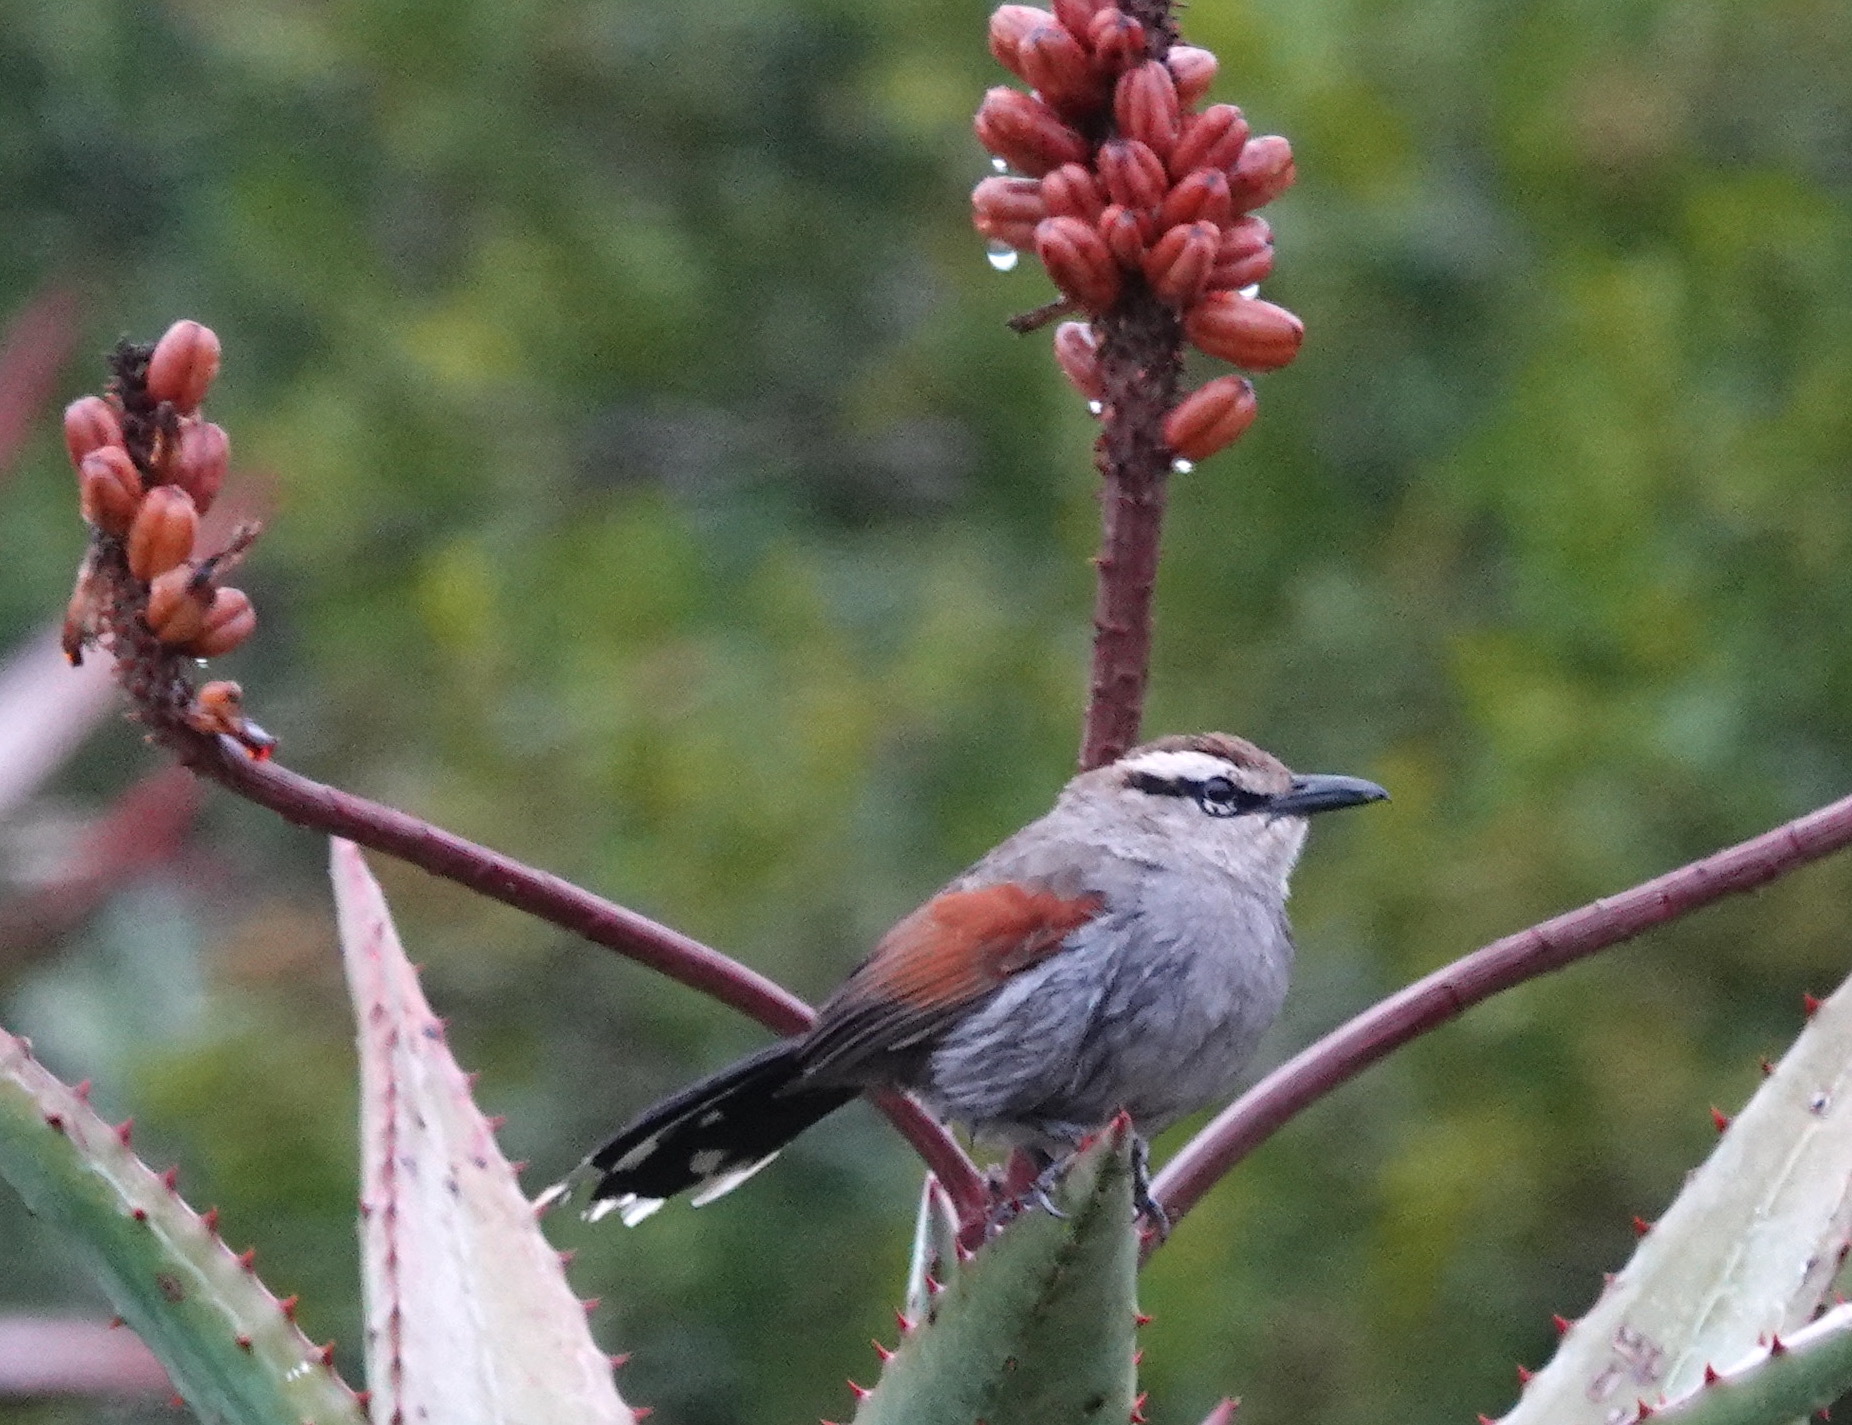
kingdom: Animalia
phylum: Chordata
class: Aves
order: Passeriformes
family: Malaconotidae
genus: Tchagra
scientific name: Tchagra tchagra
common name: Southern tchagra
